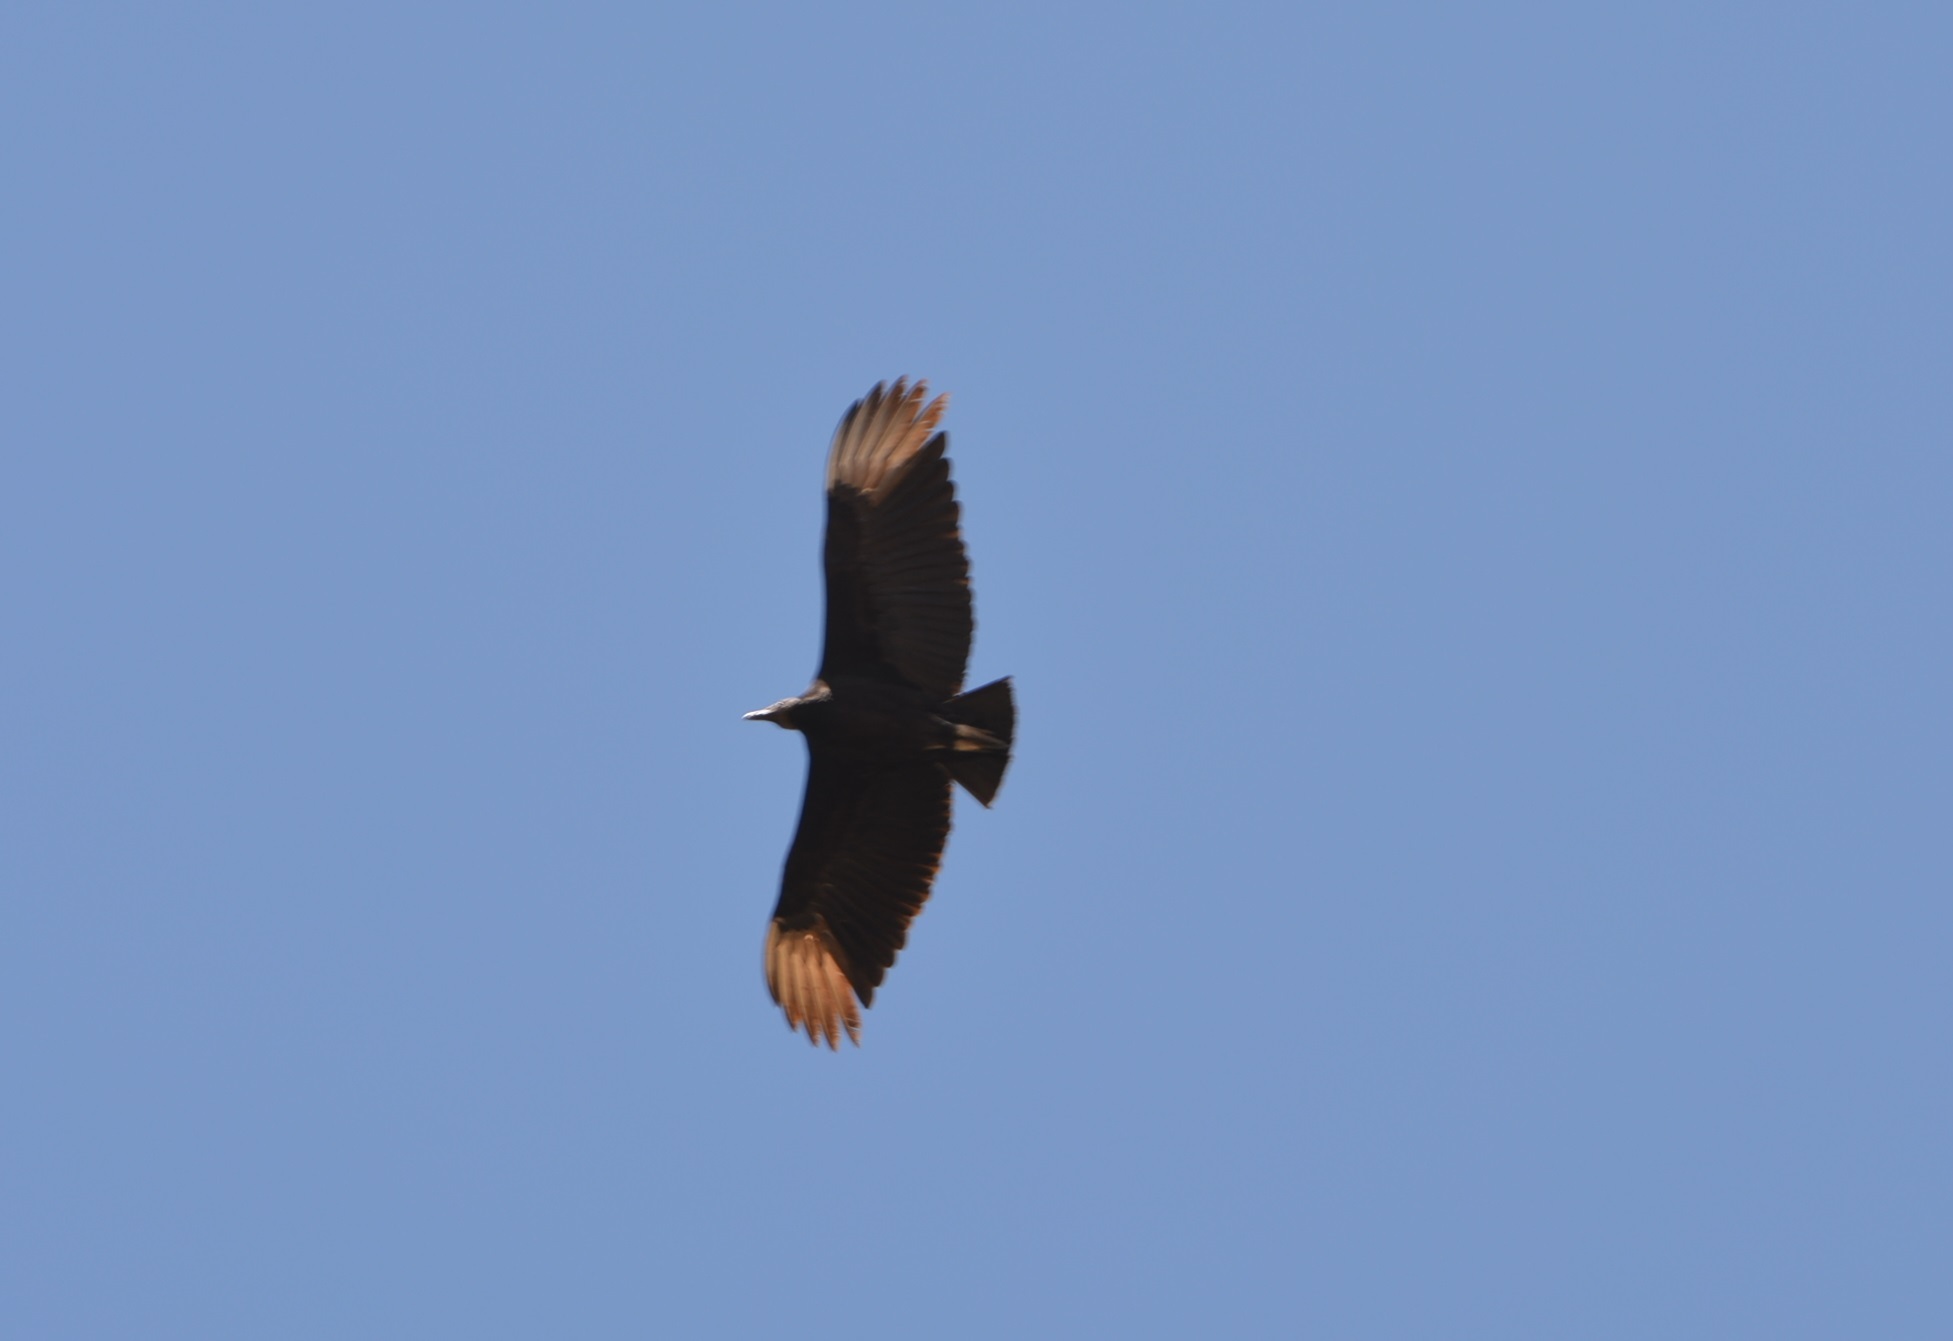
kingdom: Animalia
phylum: Chordata
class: Aves
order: Accipitriformes
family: Cathartidae
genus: Coragyps
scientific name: Coragyps atratus
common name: Black vulture
